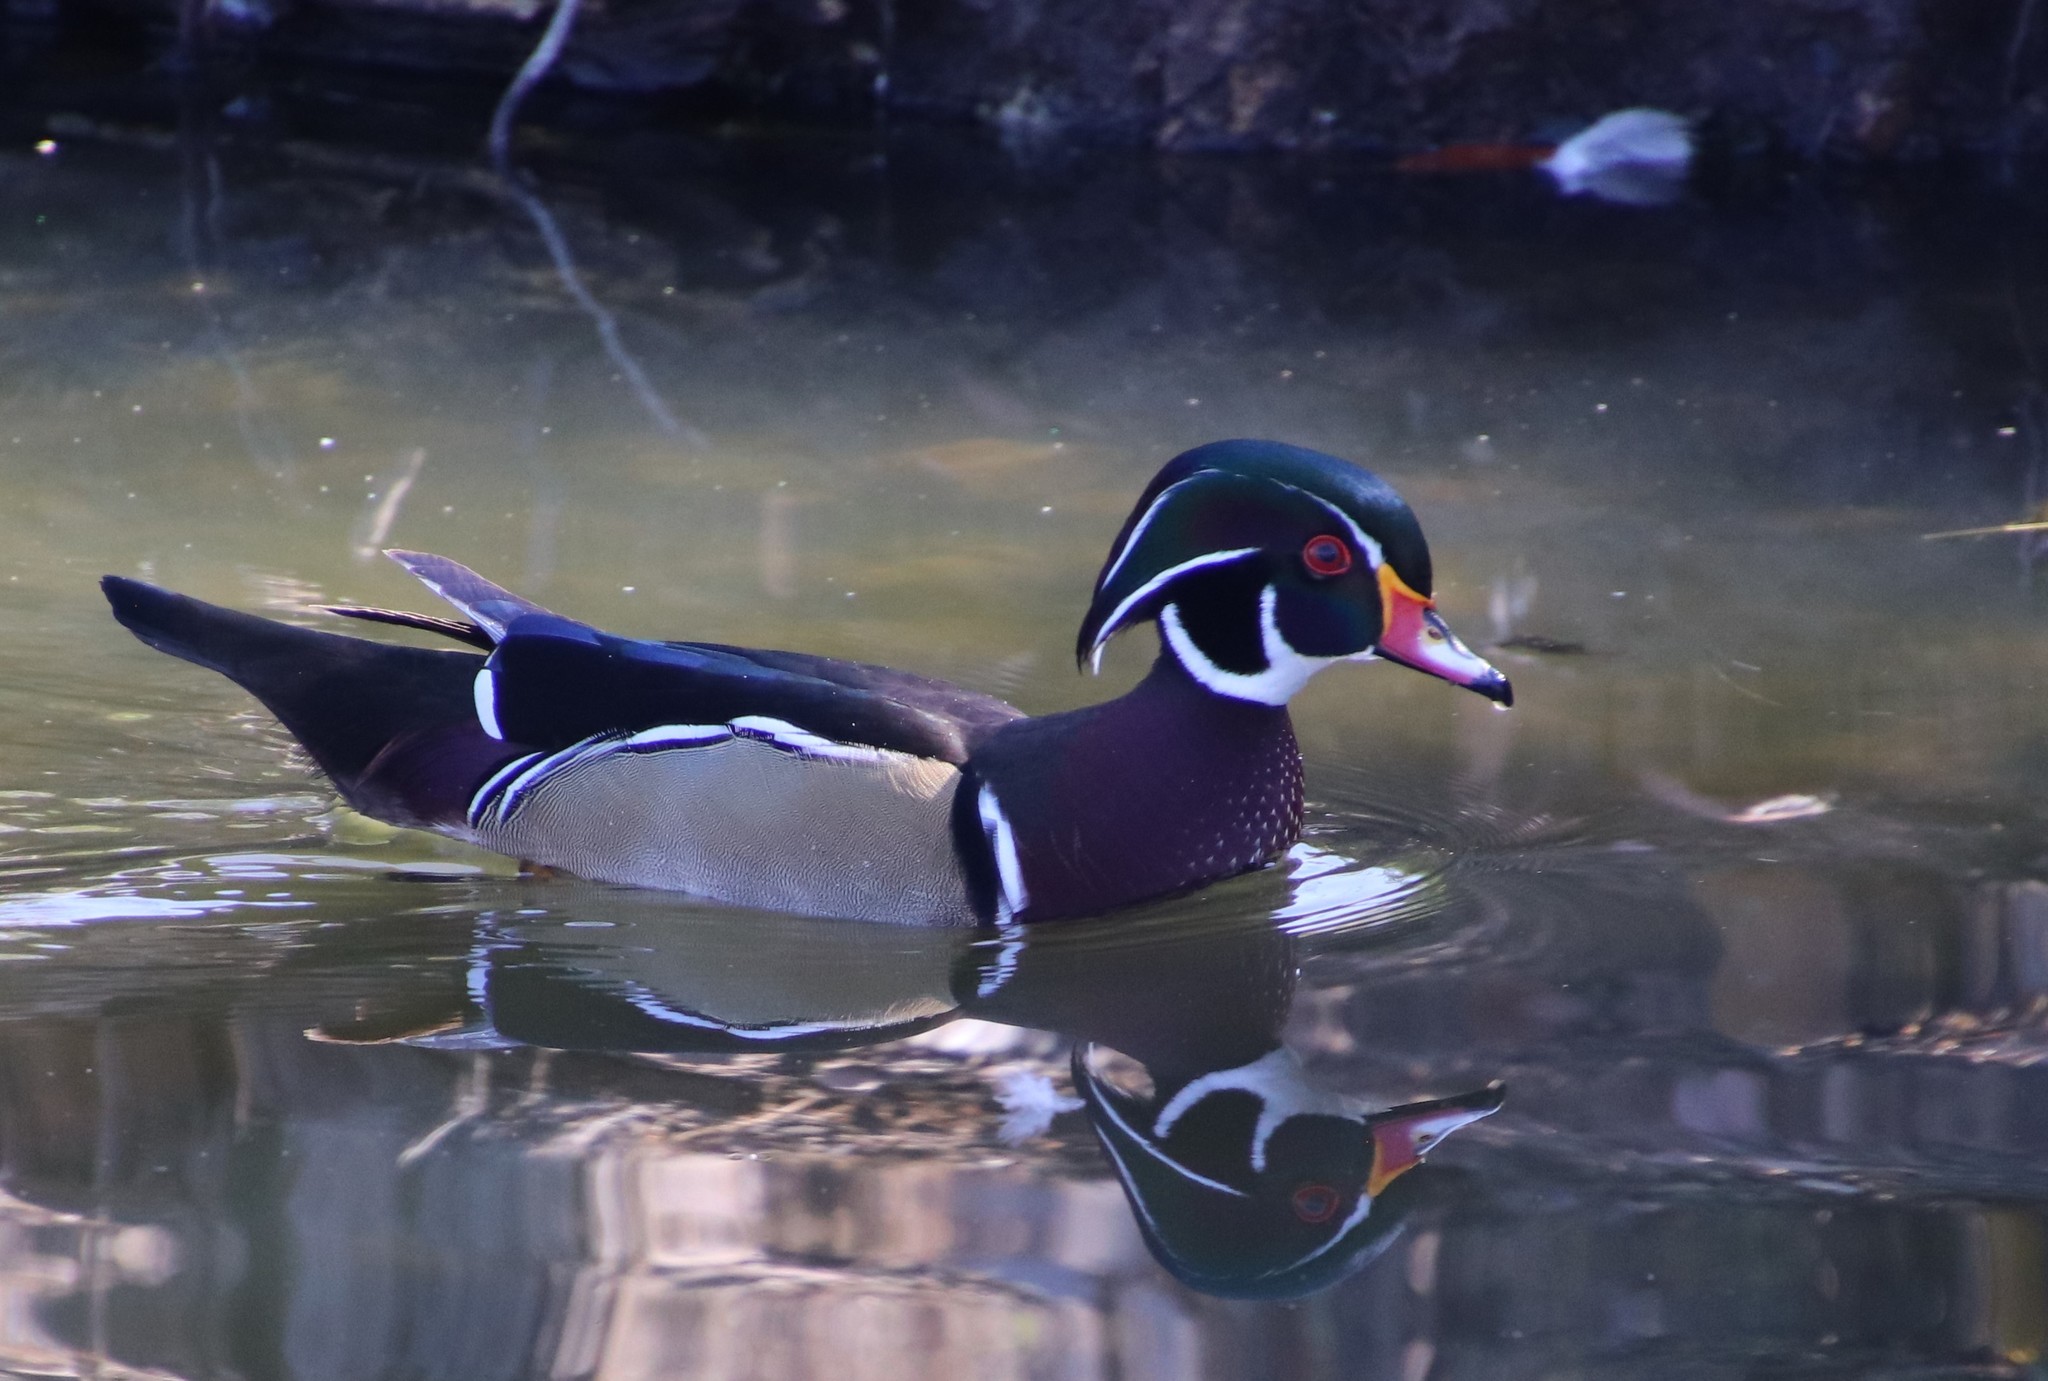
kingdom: Animalia
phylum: Chordata
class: Aves
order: Anseriformes
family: Anatidae
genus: Aix
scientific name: Aix sponsa
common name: Wood duck
